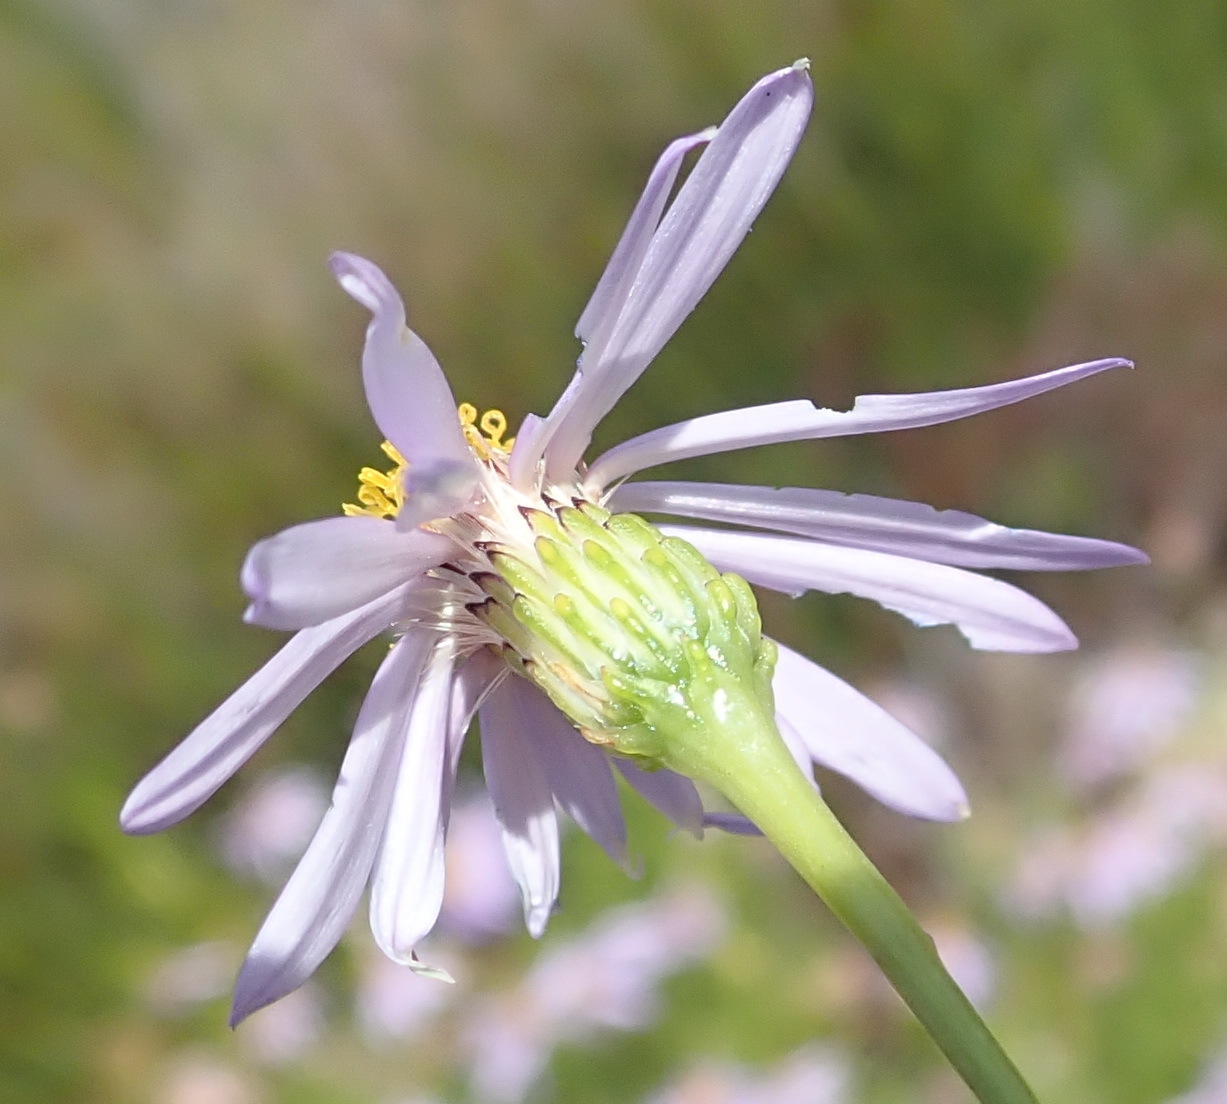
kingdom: Plantae
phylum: Tracheophyta
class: Magnoliopsida
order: Asterales
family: Asteraceae
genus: Felicia
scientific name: Felicia filifolia
